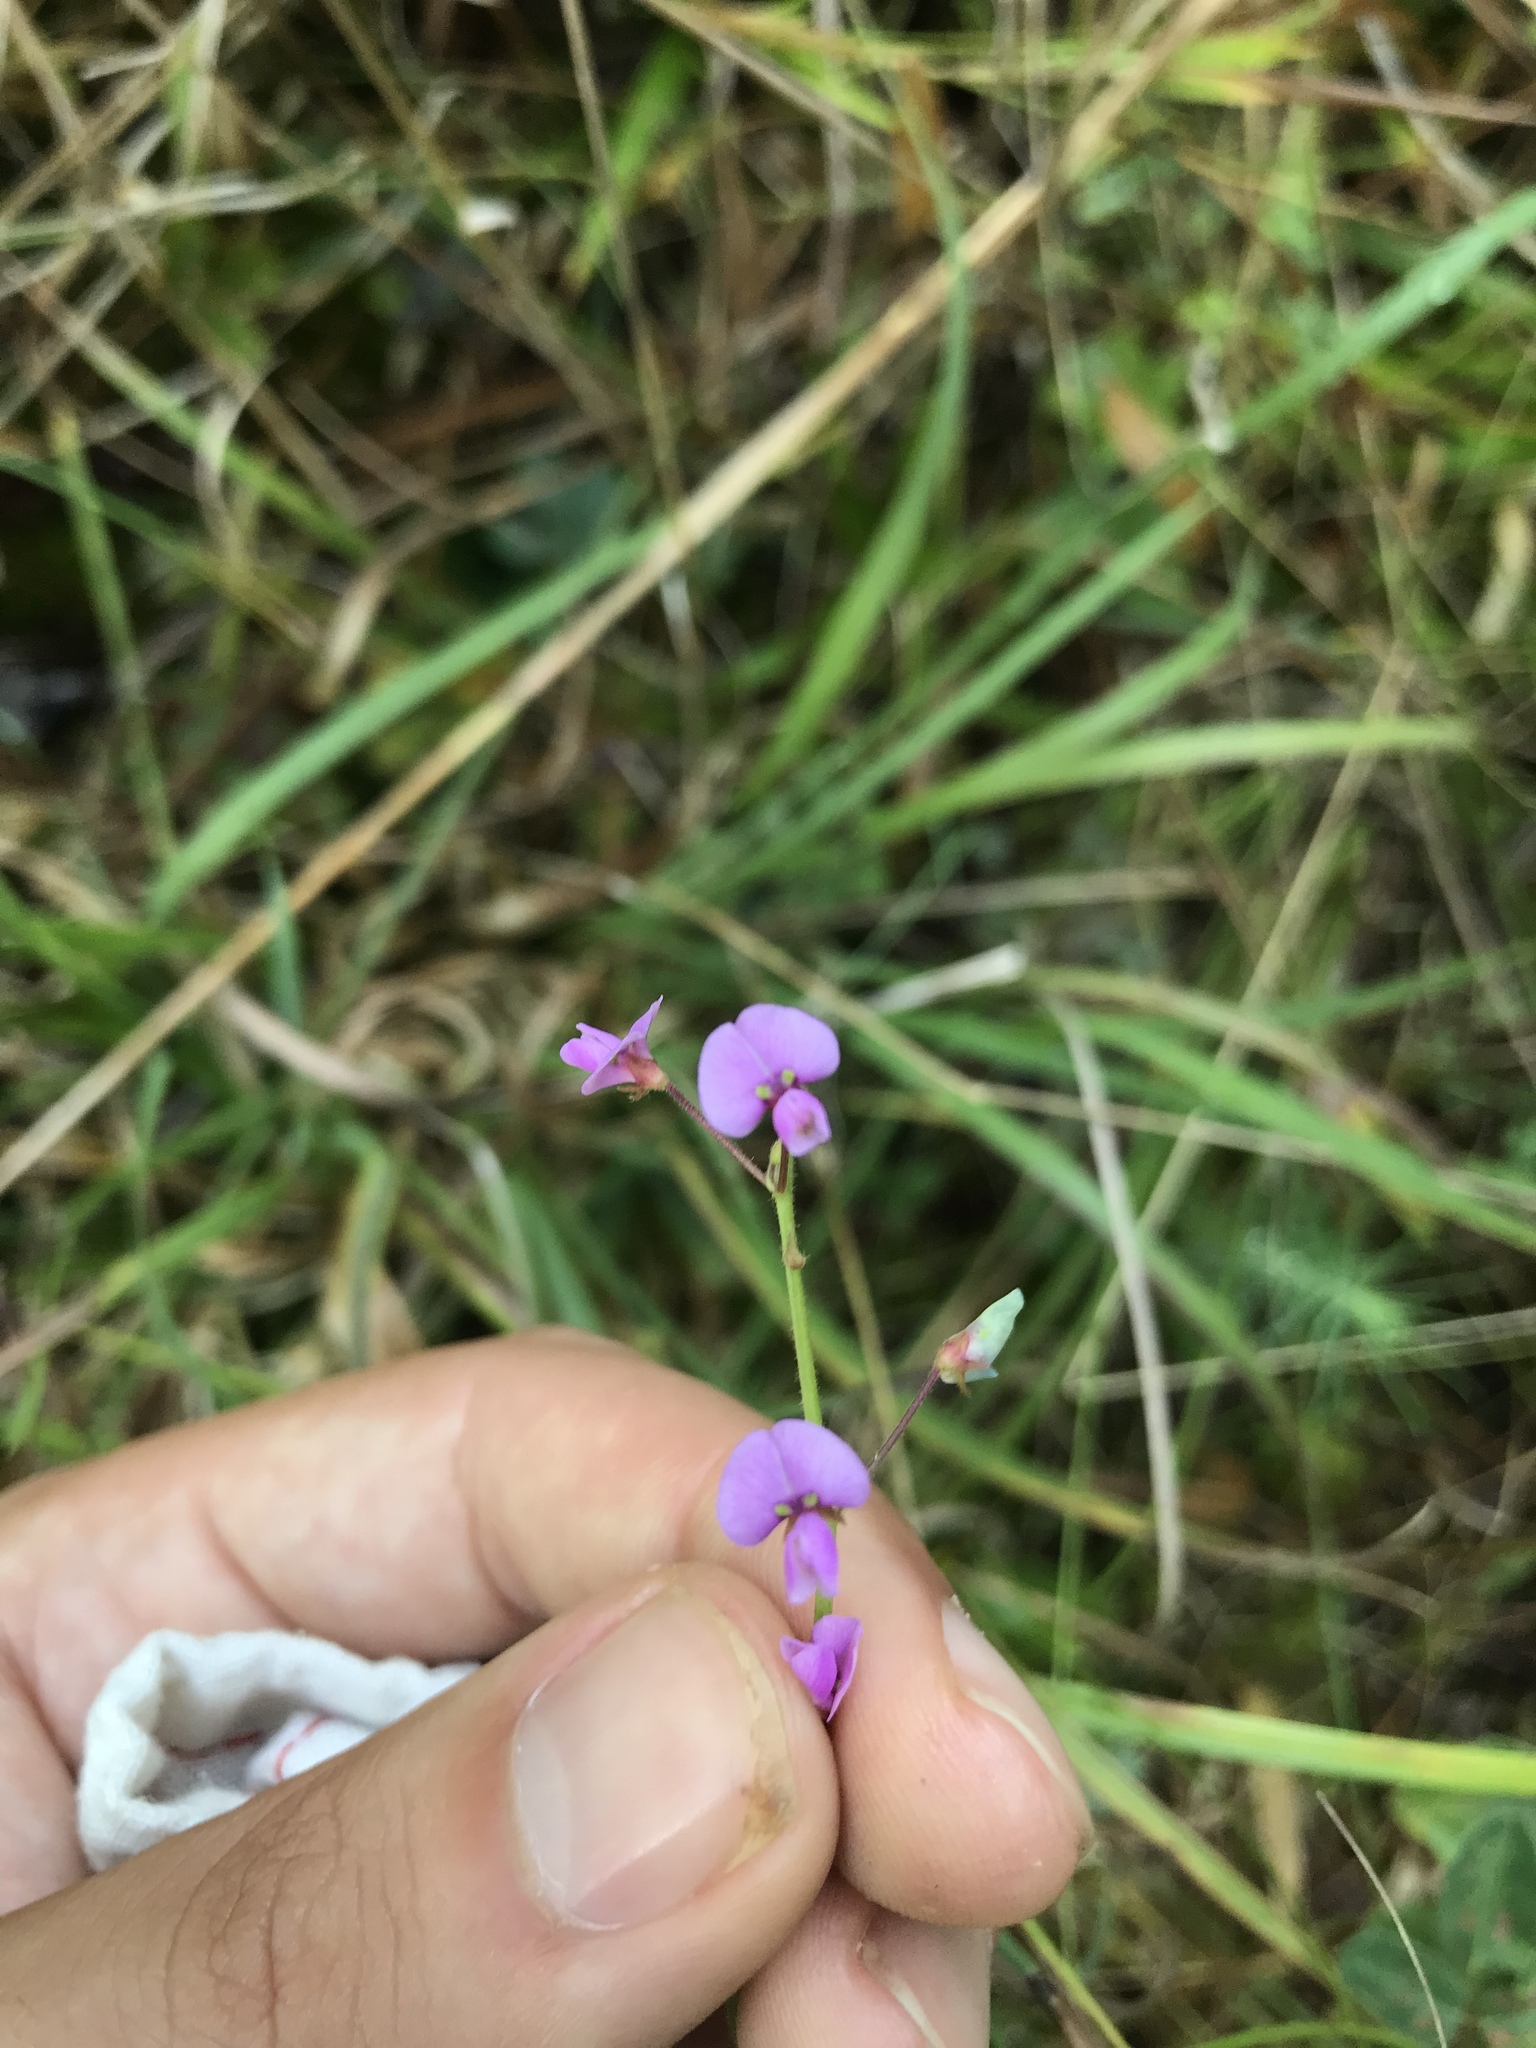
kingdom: Plantae
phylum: Tracheophyta
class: Magnoliopsida
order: Fabales
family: Fabaceae
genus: Desmodium
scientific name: Desmodium ciliare
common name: Hairy small-leaf ticktrefoil
